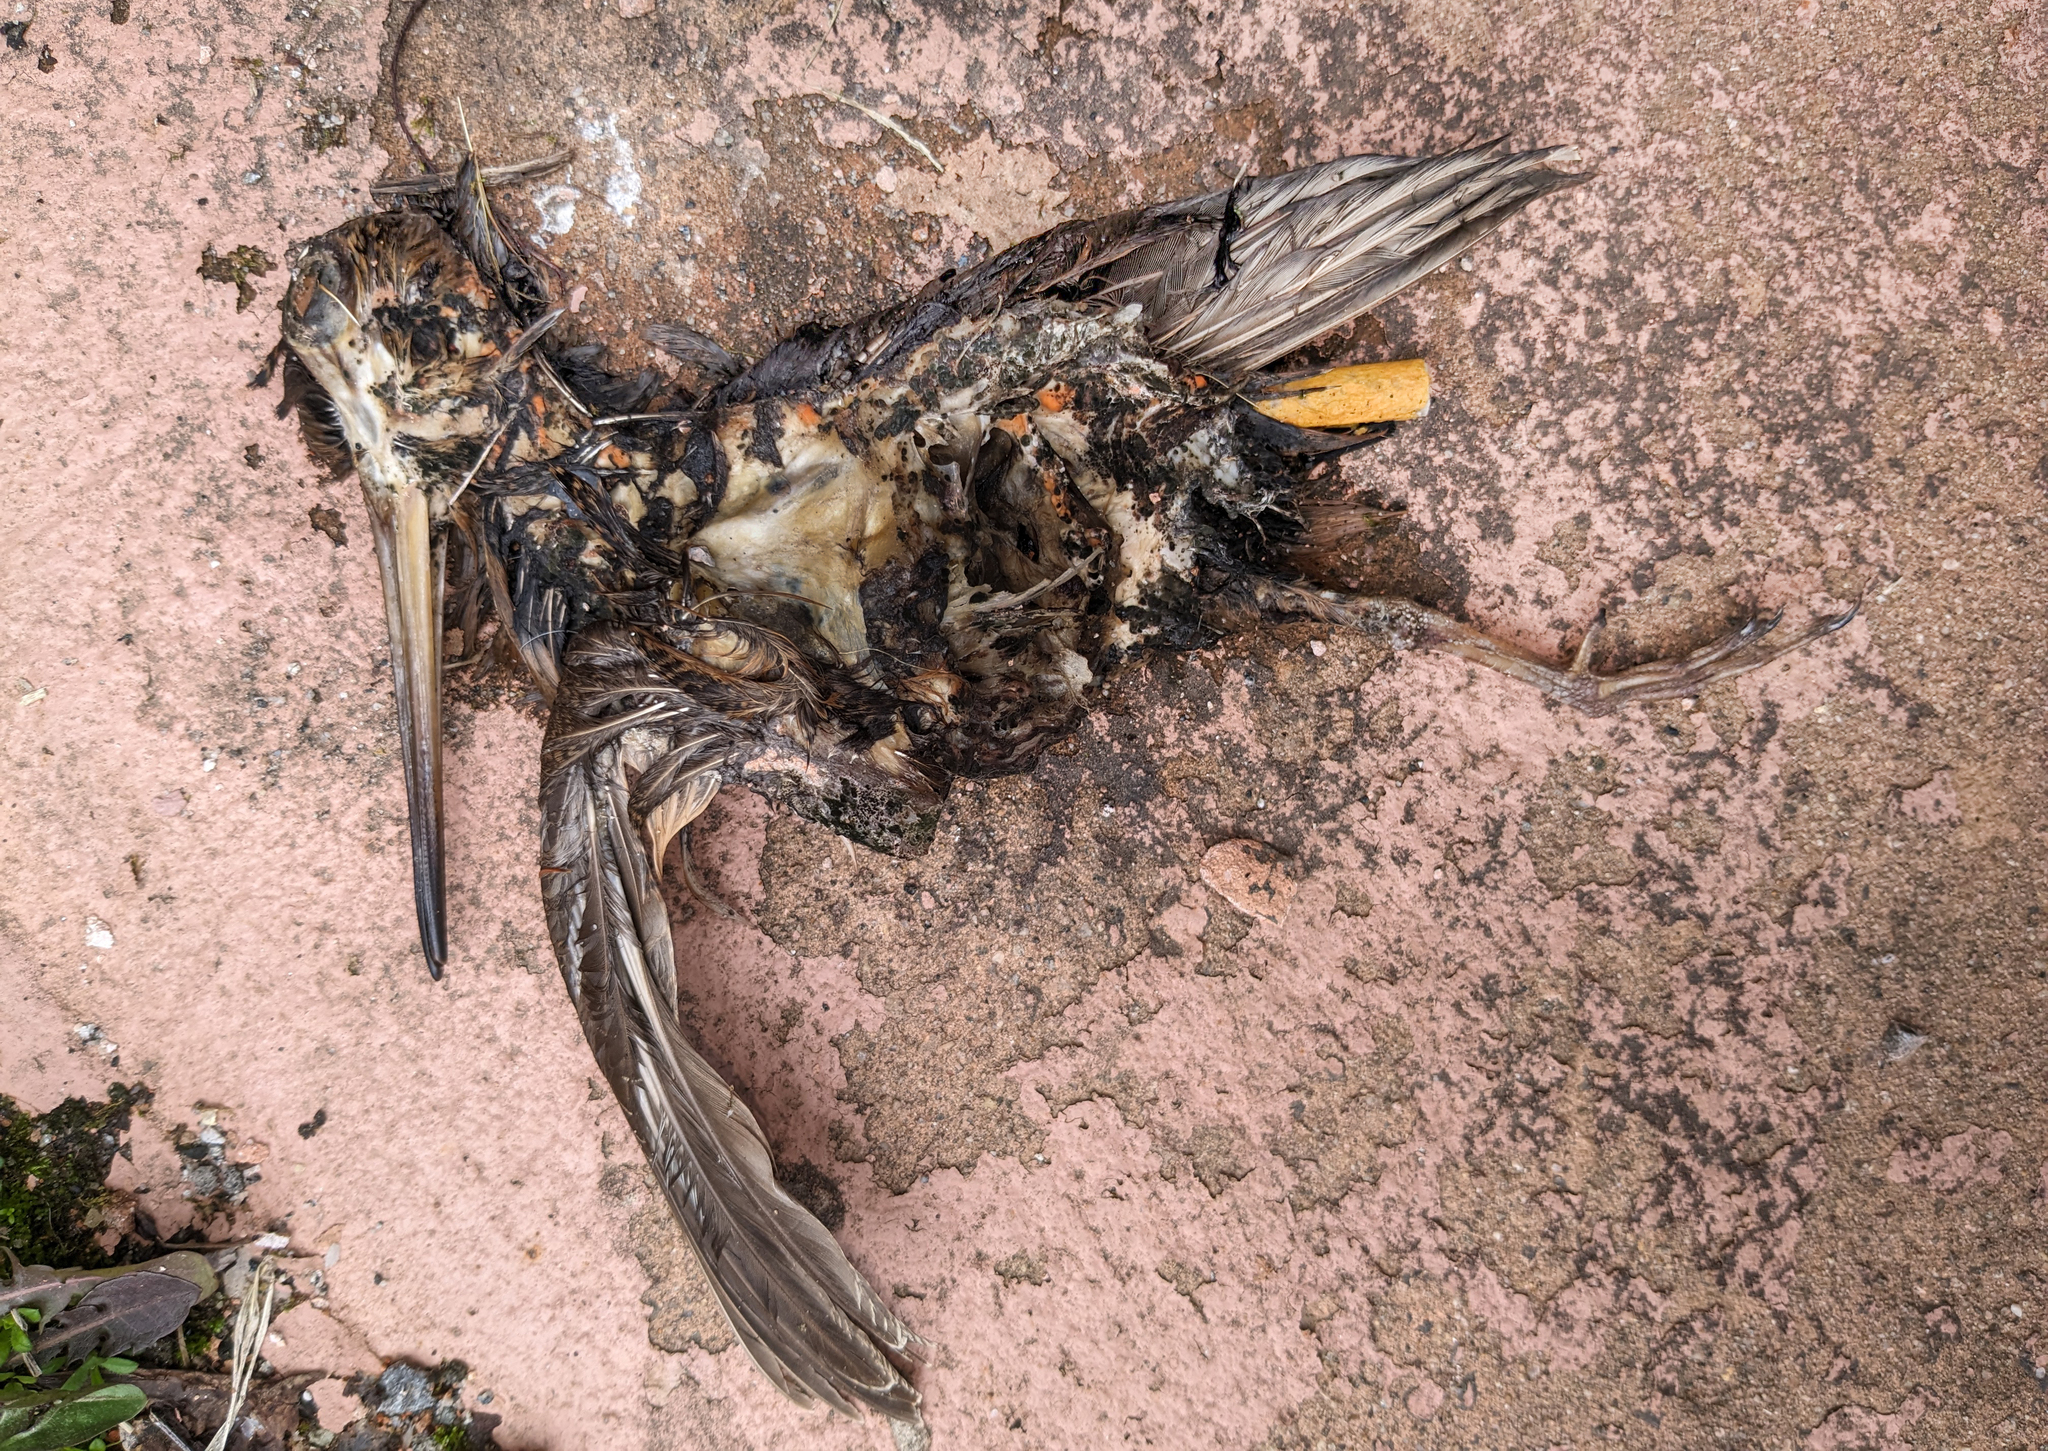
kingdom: Animalia
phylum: Chordata
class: Aves
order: Charadriiformes
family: Scolopacidae
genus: Scolopax
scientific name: Scolopax minor
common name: American woodcock
